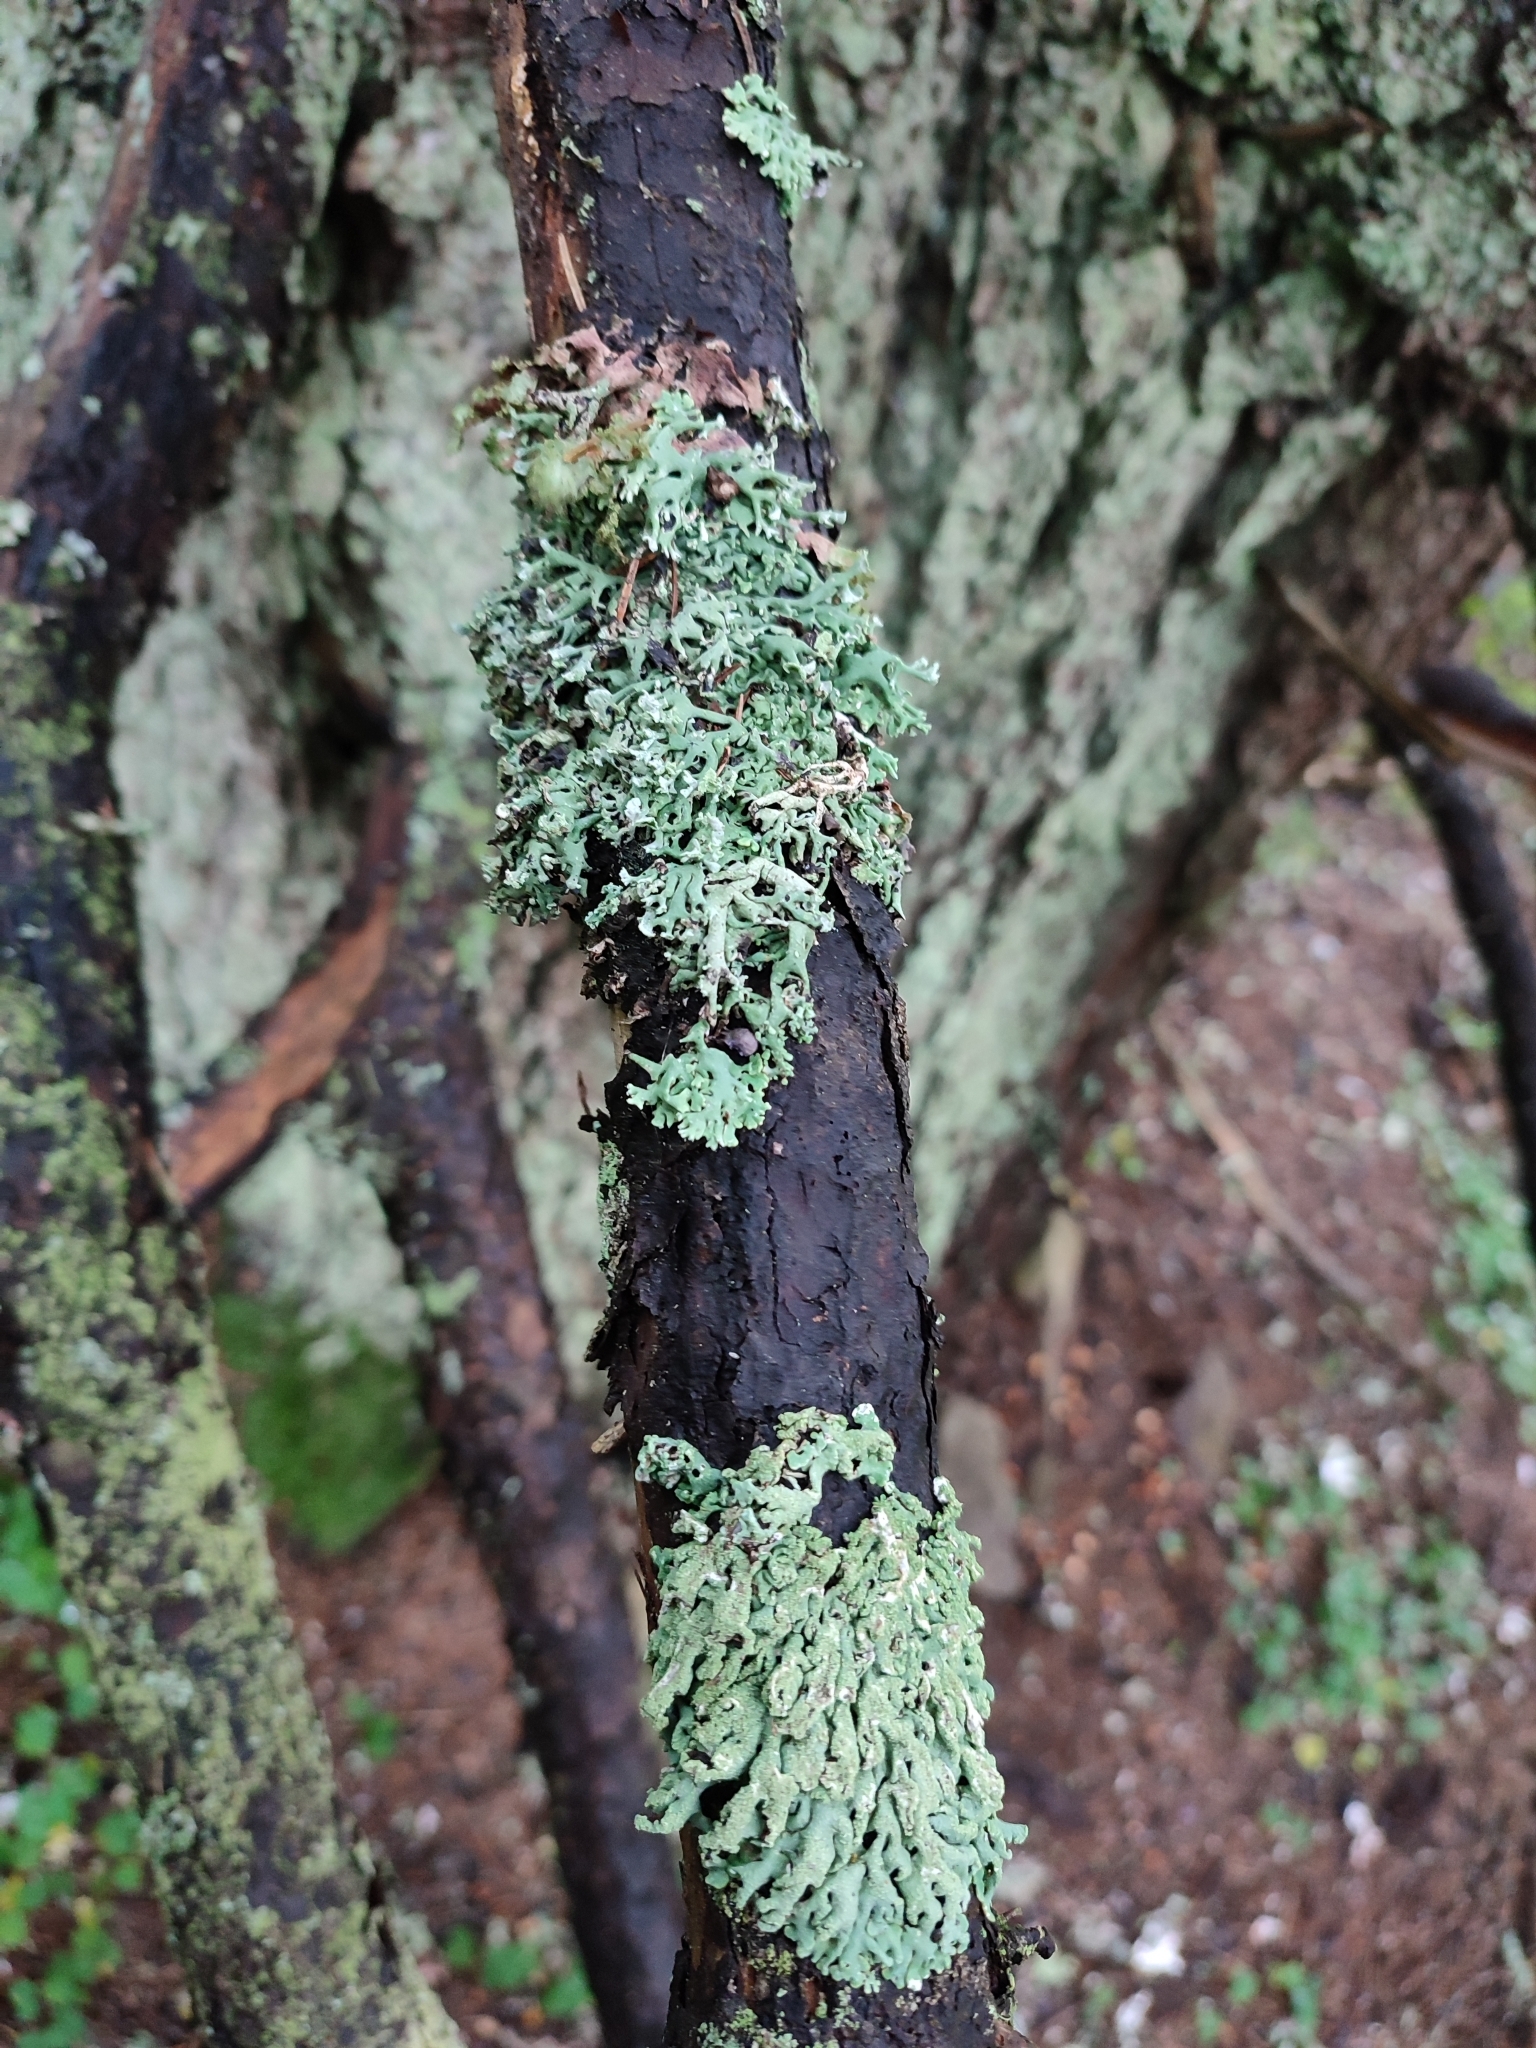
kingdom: Fungi
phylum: Ascomycota
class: Lecanoromycetes
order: Lecanorales
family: Parmeliaceae
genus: Hypogymnia
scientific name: Hypogymnia physodes
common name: Dark crottle
